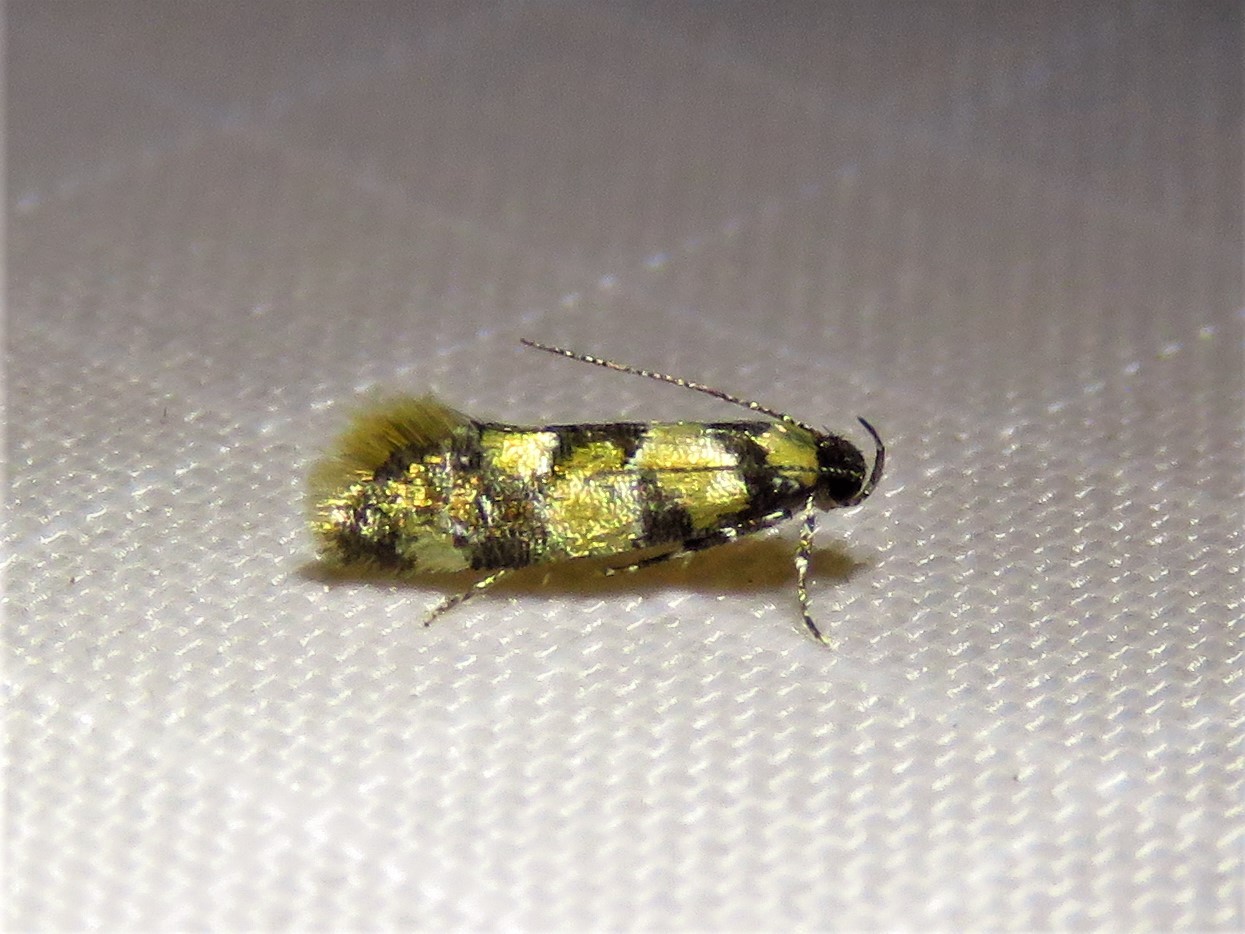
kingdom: Animalia
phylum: Arthropoda
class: Insecta
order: Lepidoptera
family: Oecophoridae
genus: Decantha
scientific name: Decantha borkhausenii
